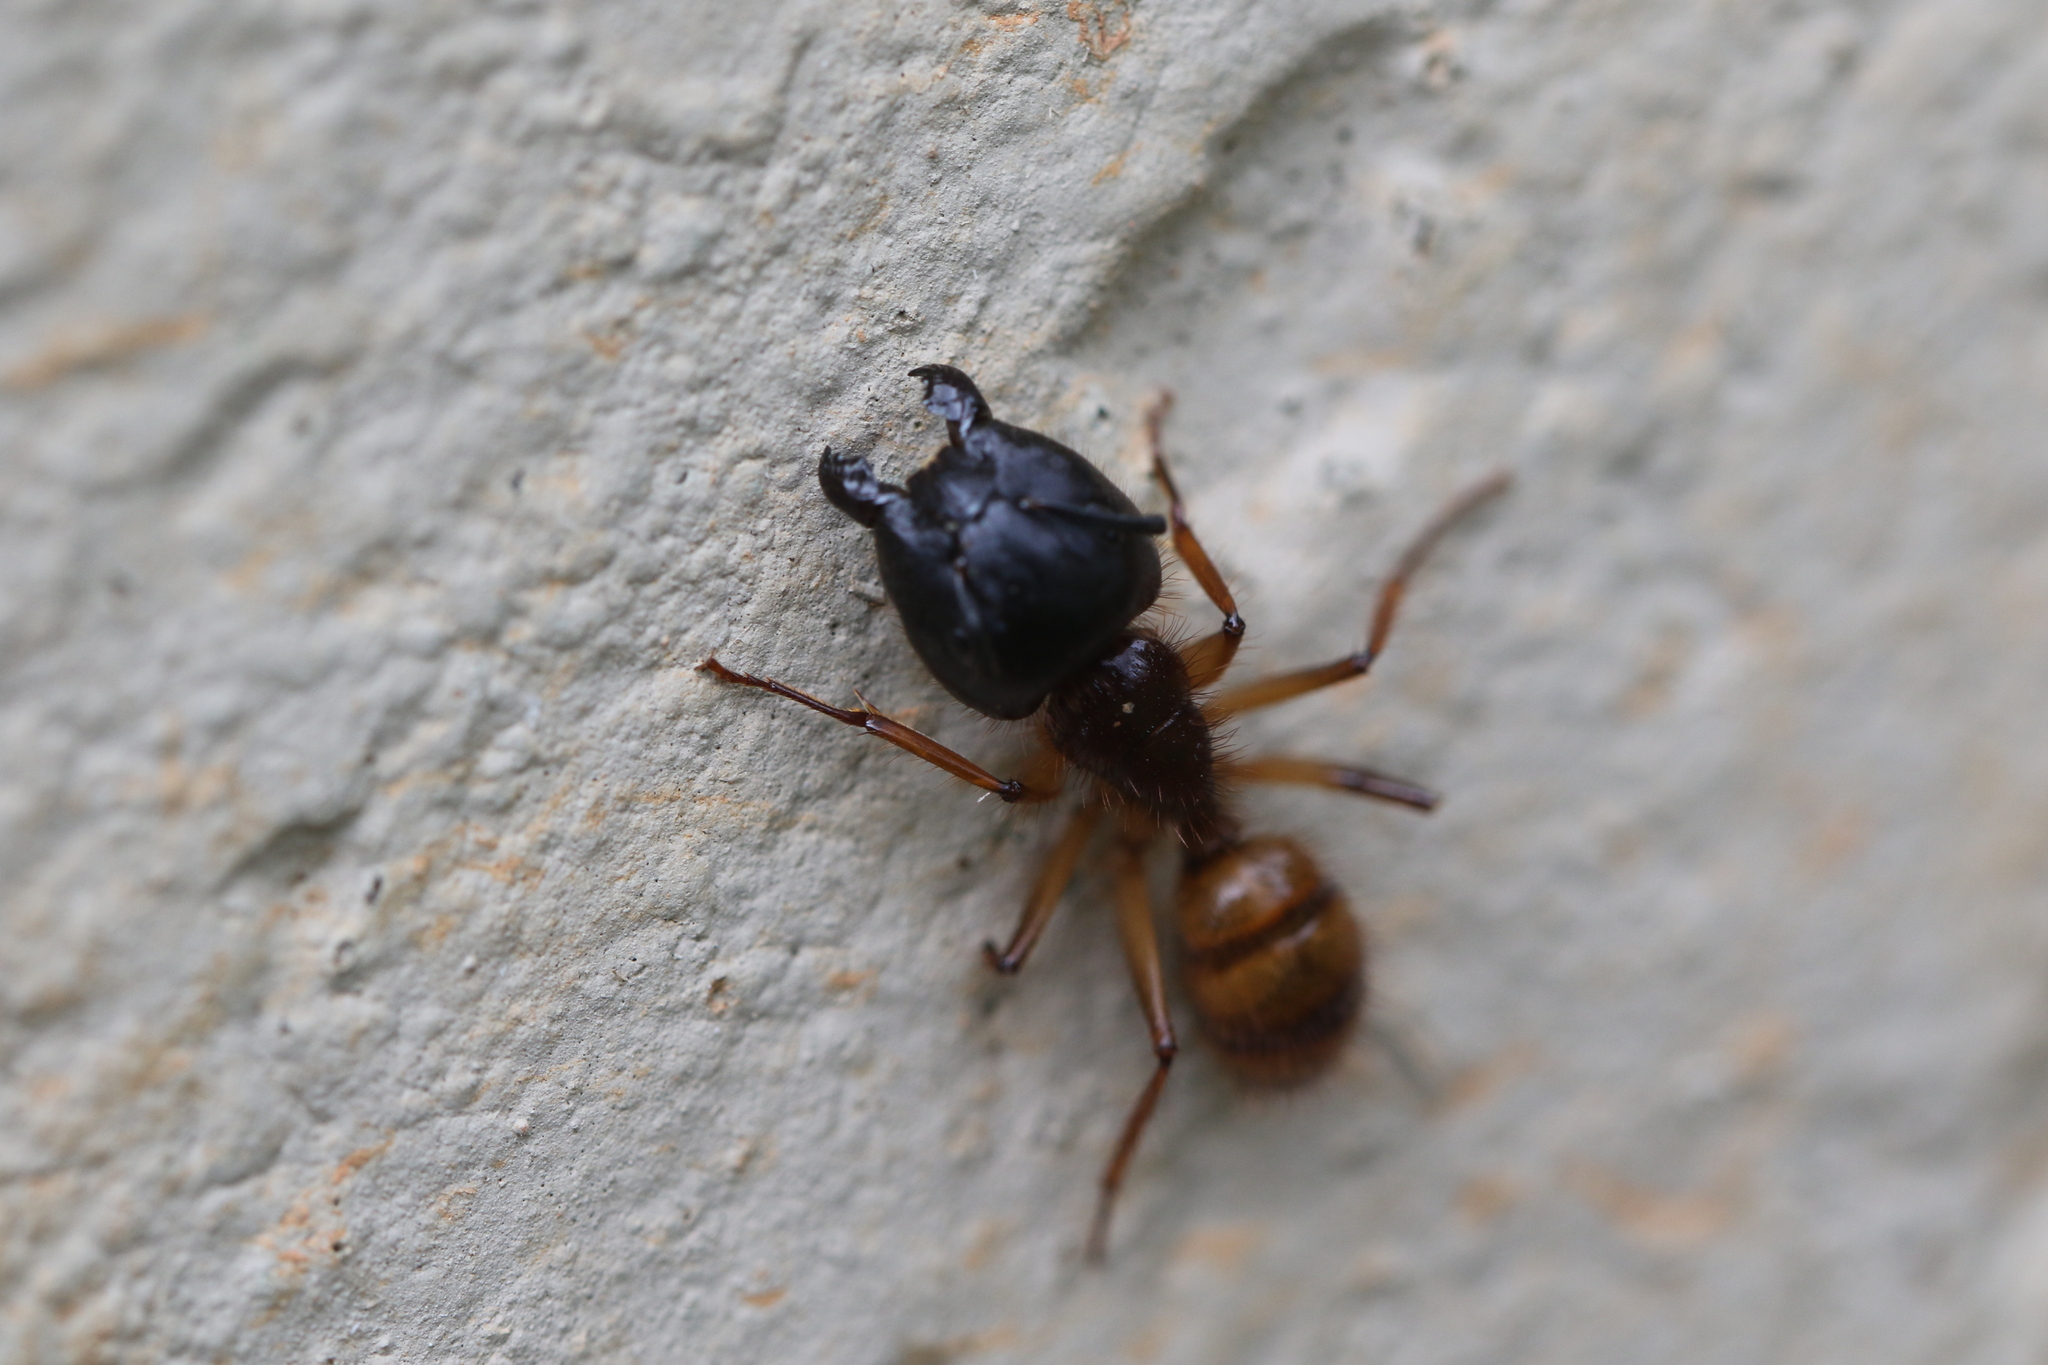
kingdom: Animalia
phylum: Arthropoda
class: Insecta
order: Hymenoptera
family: Formicidae
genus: Camponotus
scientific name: Camponotus atriceps
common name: Florida carpenter ant
